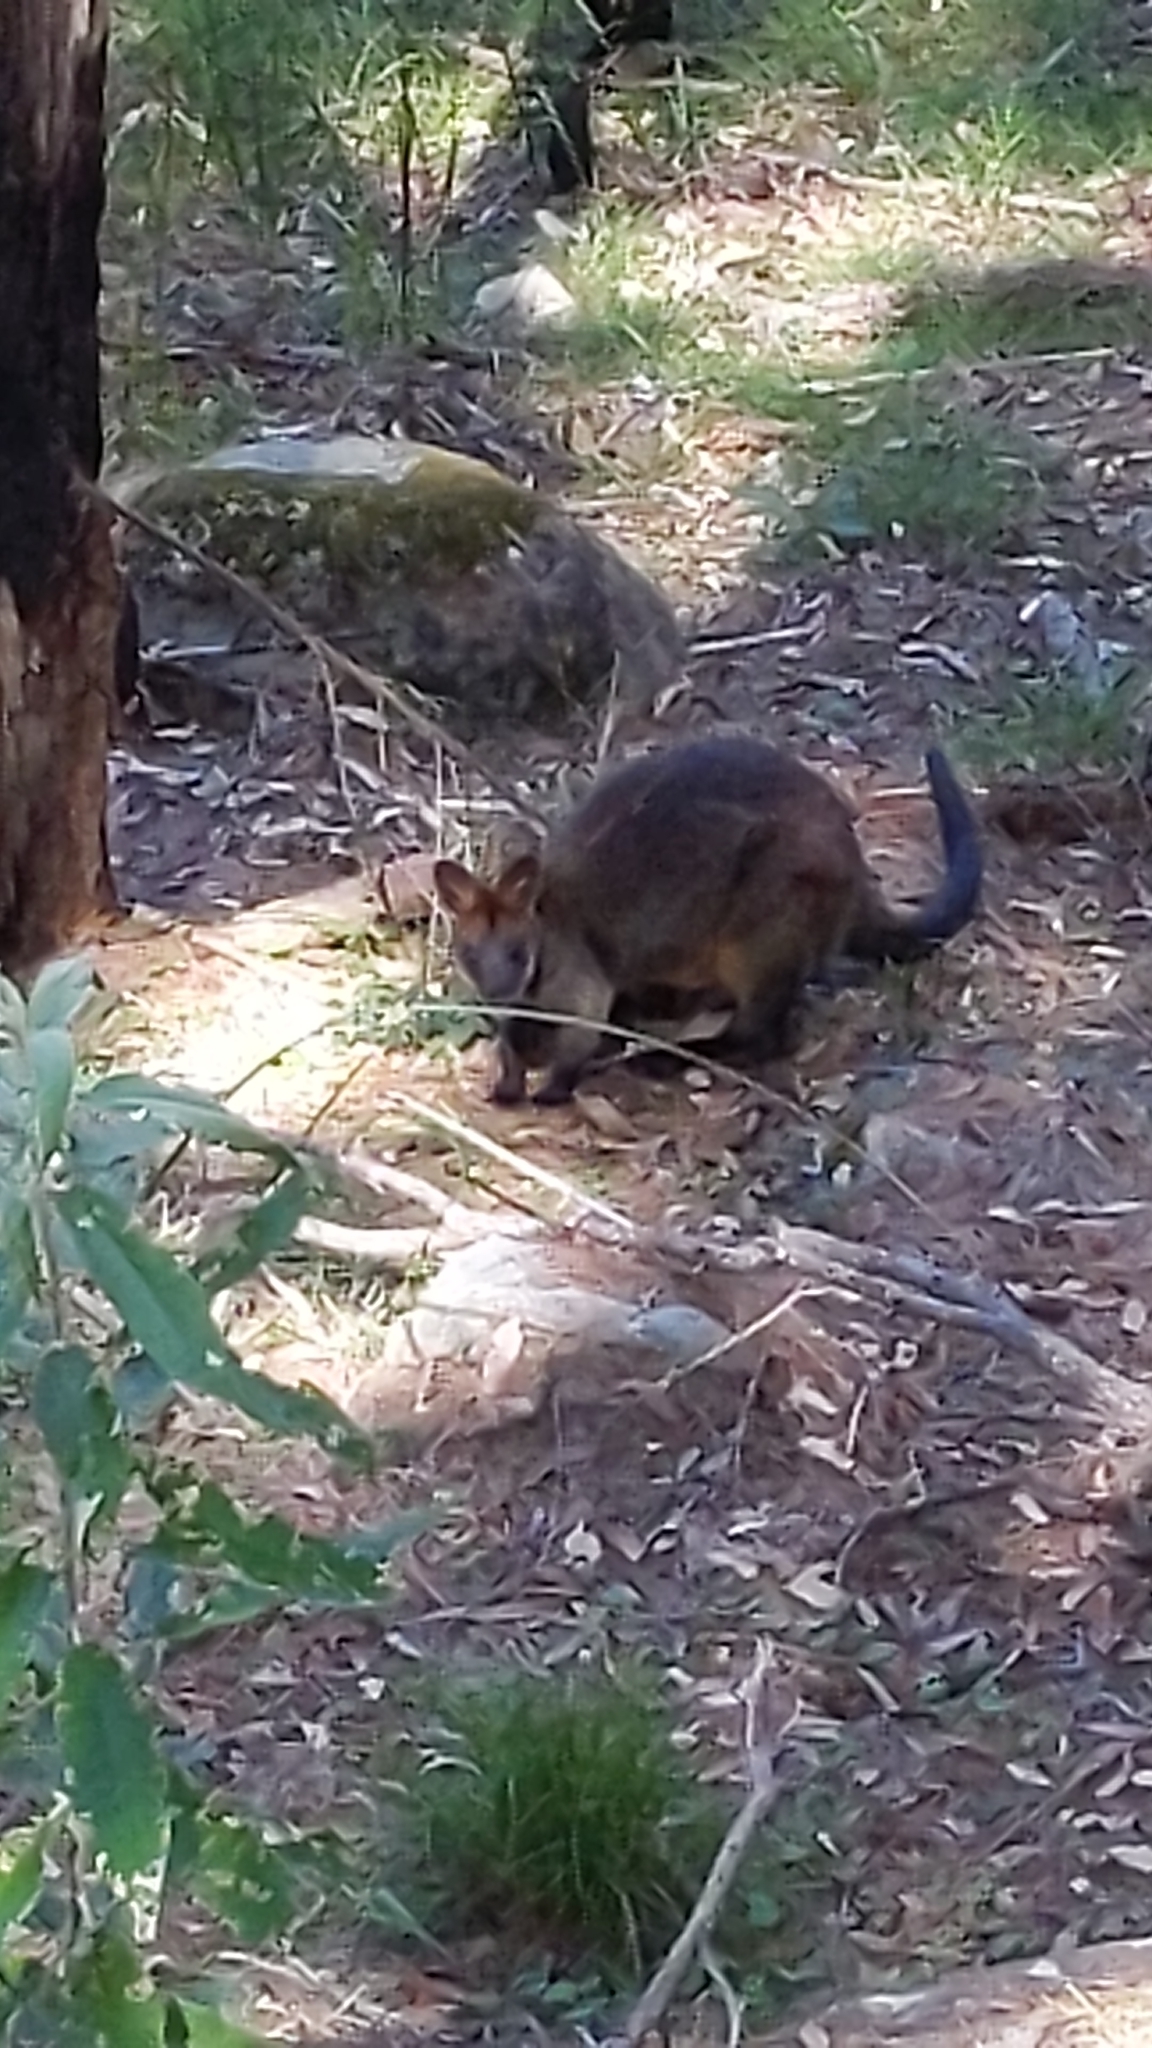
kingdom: Animalia
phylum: Chordata
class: Mammalia
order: Diprotodontia
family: Macropodidae
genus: Wallabia
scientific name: Wallabia bicolor
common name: Swamp wallaby
